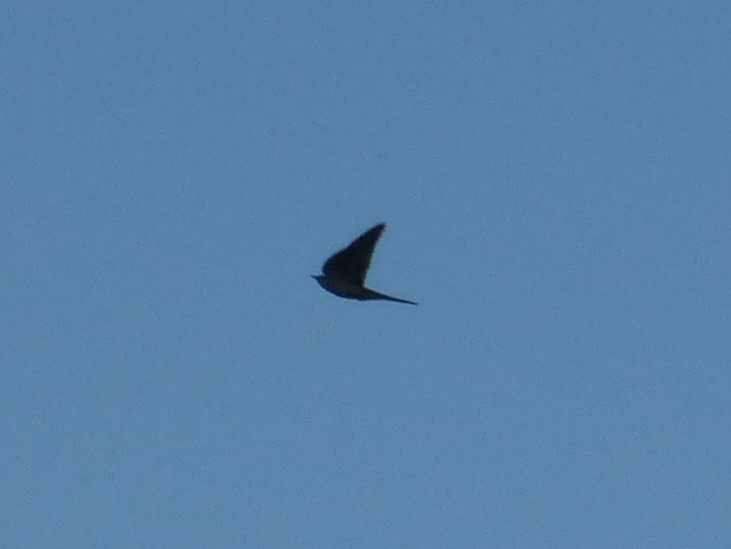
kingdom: Animalia
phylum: Chordata
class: Aves
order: Cuculiformes
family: Cuculidae
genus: Cuculus
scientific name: Cuculus canorus
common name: Common cuckoo
